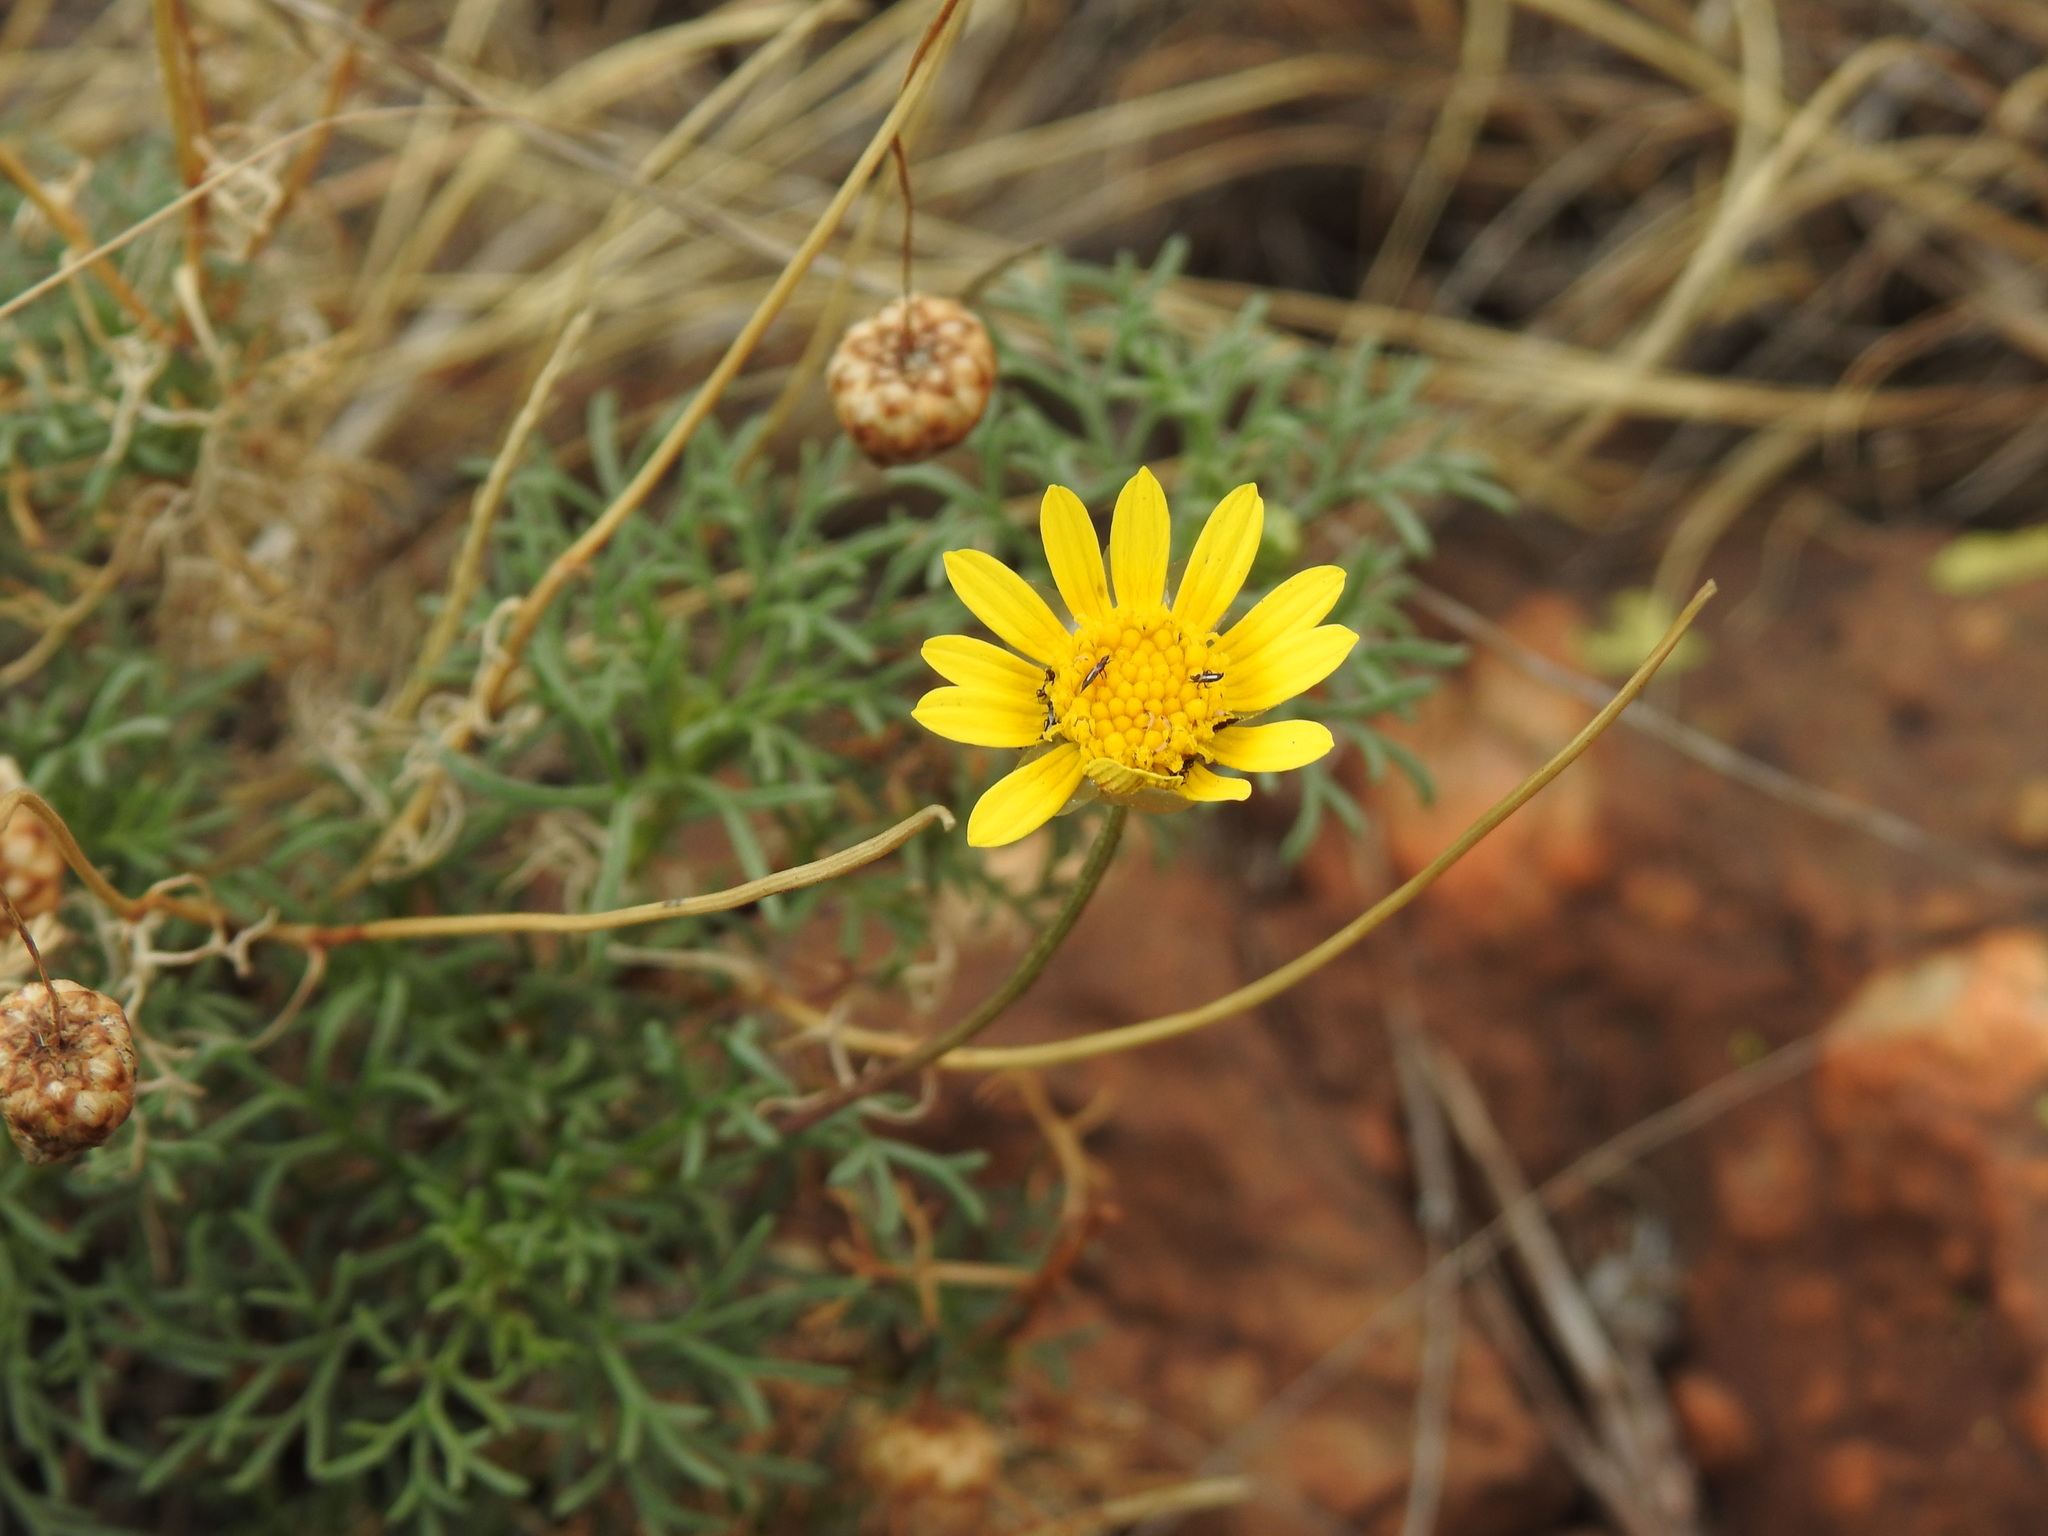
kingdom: Plantae
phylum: Tracheophyta
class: Magnoliopsida
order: Asterales
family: Asteraceae
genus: Ursinia
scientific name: Ursinia nana
